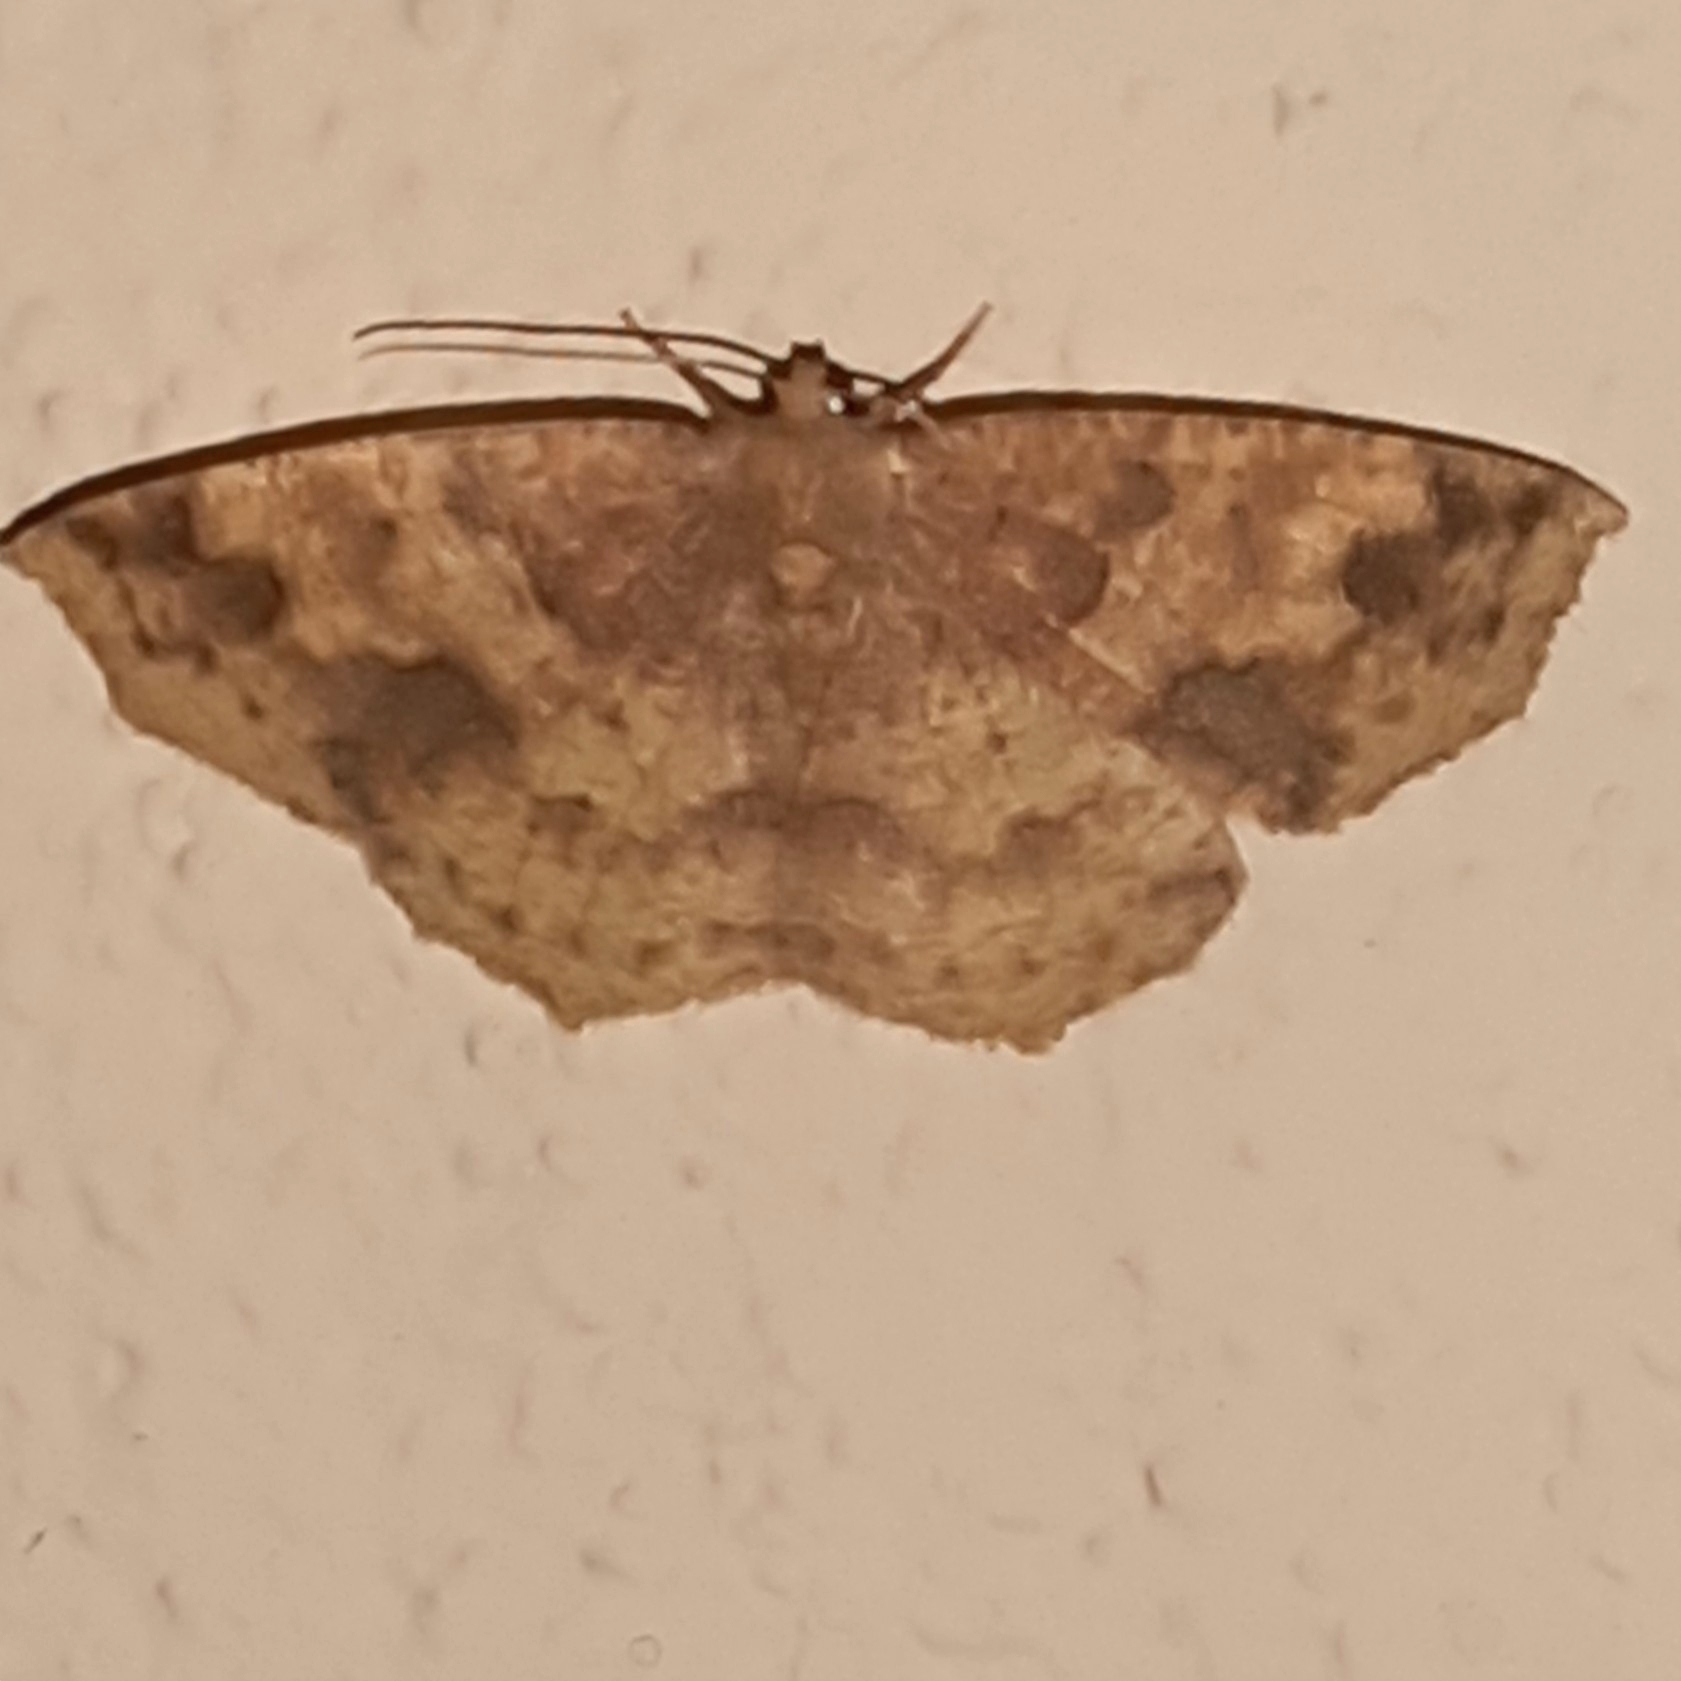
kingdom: Animalia
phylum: Arthropoda
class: Insecta
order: Lepidoptera
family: Geometridae
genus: Periclina
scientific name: Periclina merana
